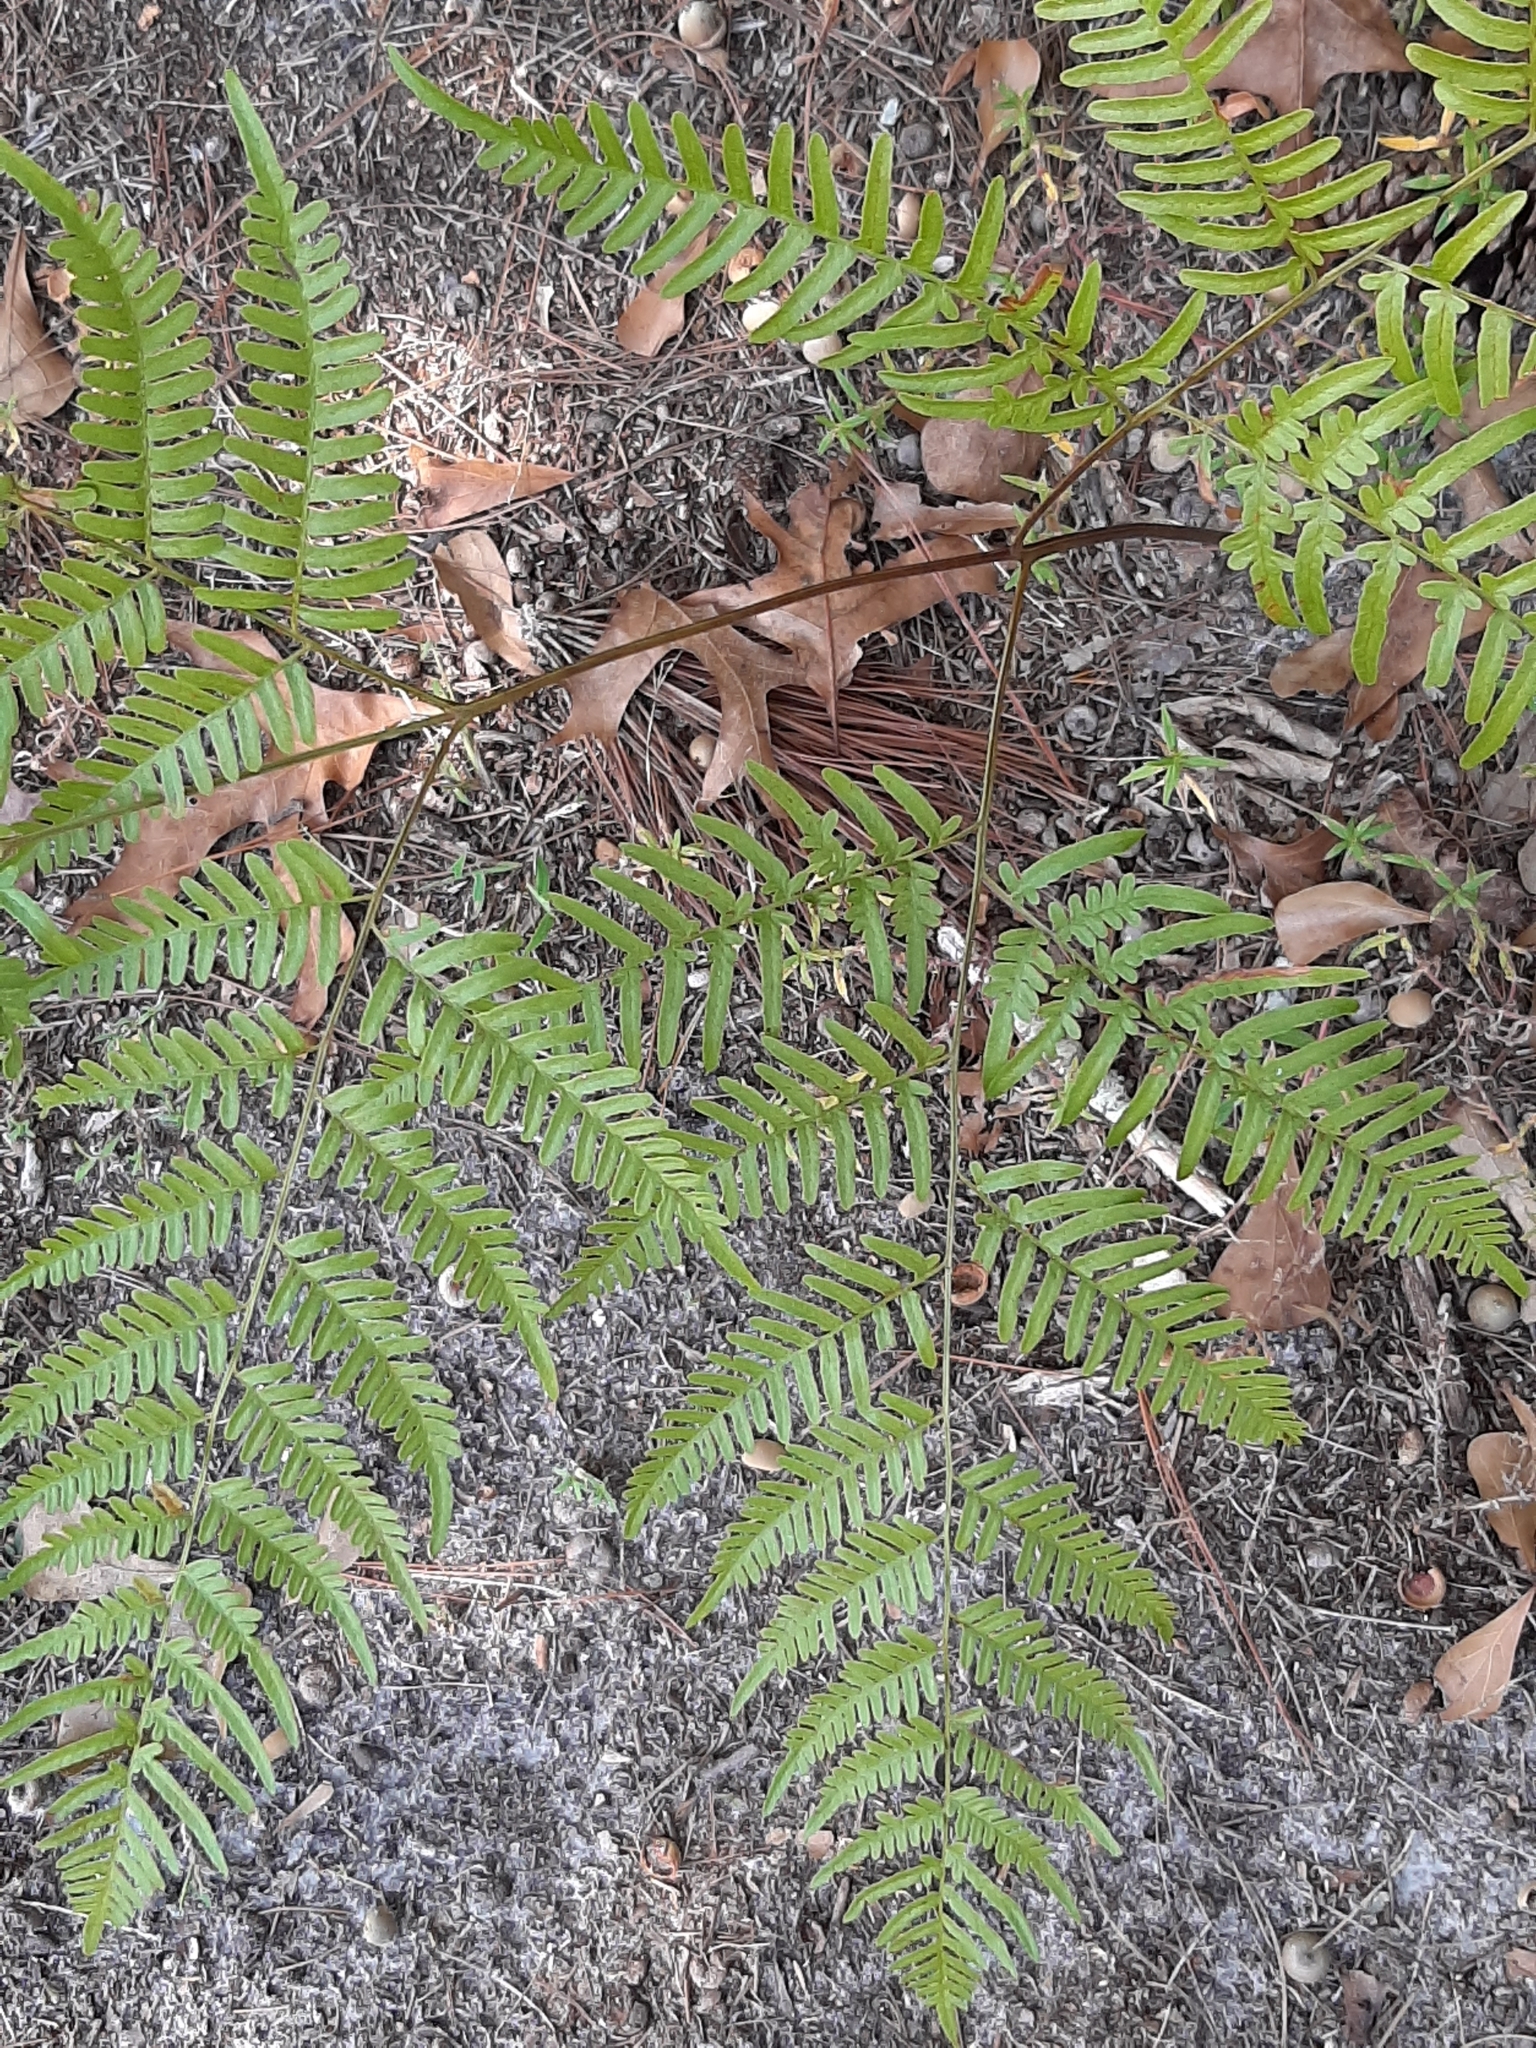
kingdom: Plantae
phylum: Tracheophyta
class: Polypodiopsida
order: Polypodiales
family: Dennstaedtiaceae
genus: Pteridium
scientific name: Pteridium
